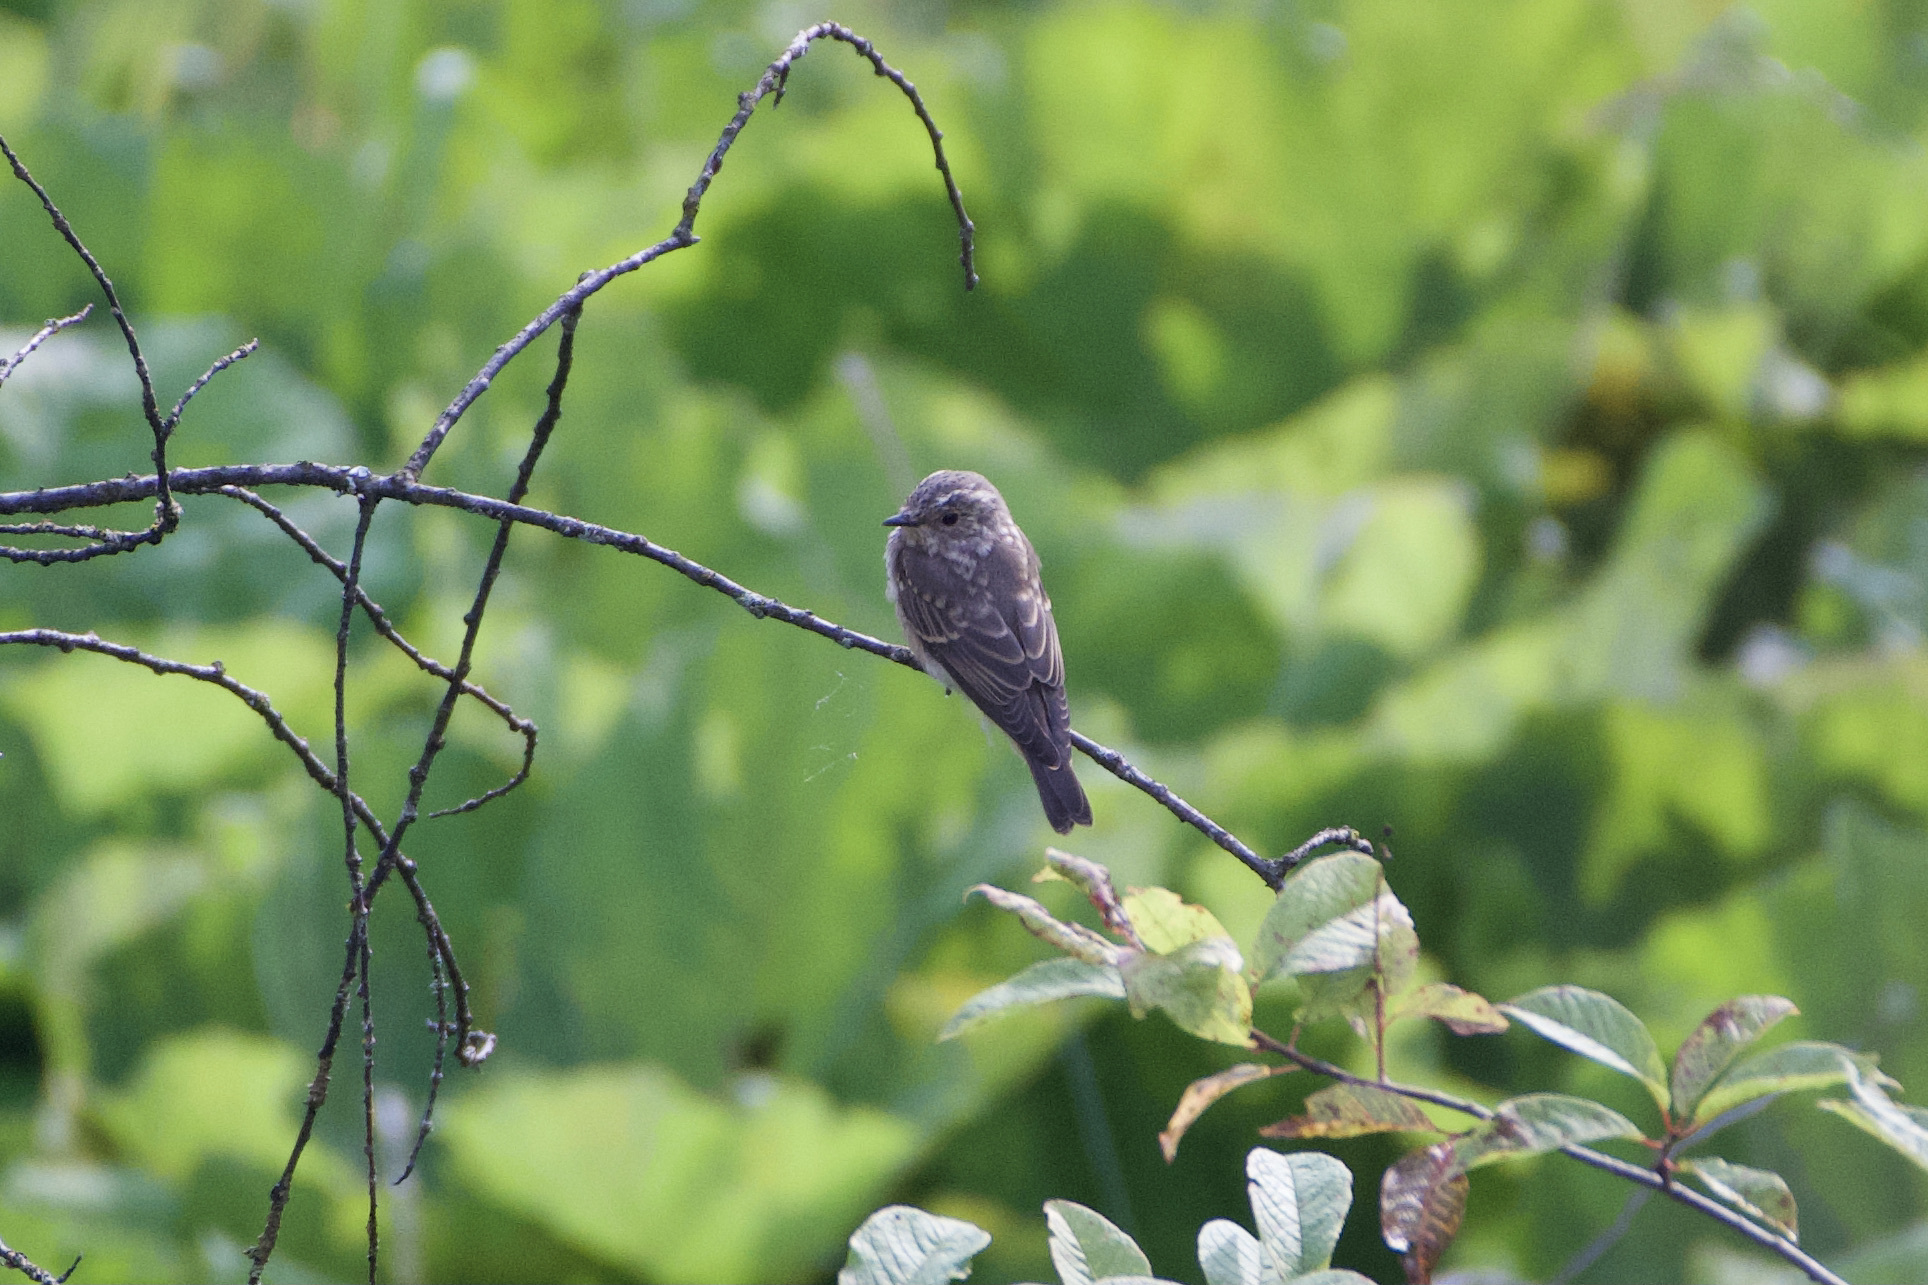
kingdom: Animalia
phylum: Chordata
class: Aves
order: Passeriformes
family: Muscicapidae
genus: Muscicapa
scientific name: Muscicapa striata
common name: Spotted flycatcher
